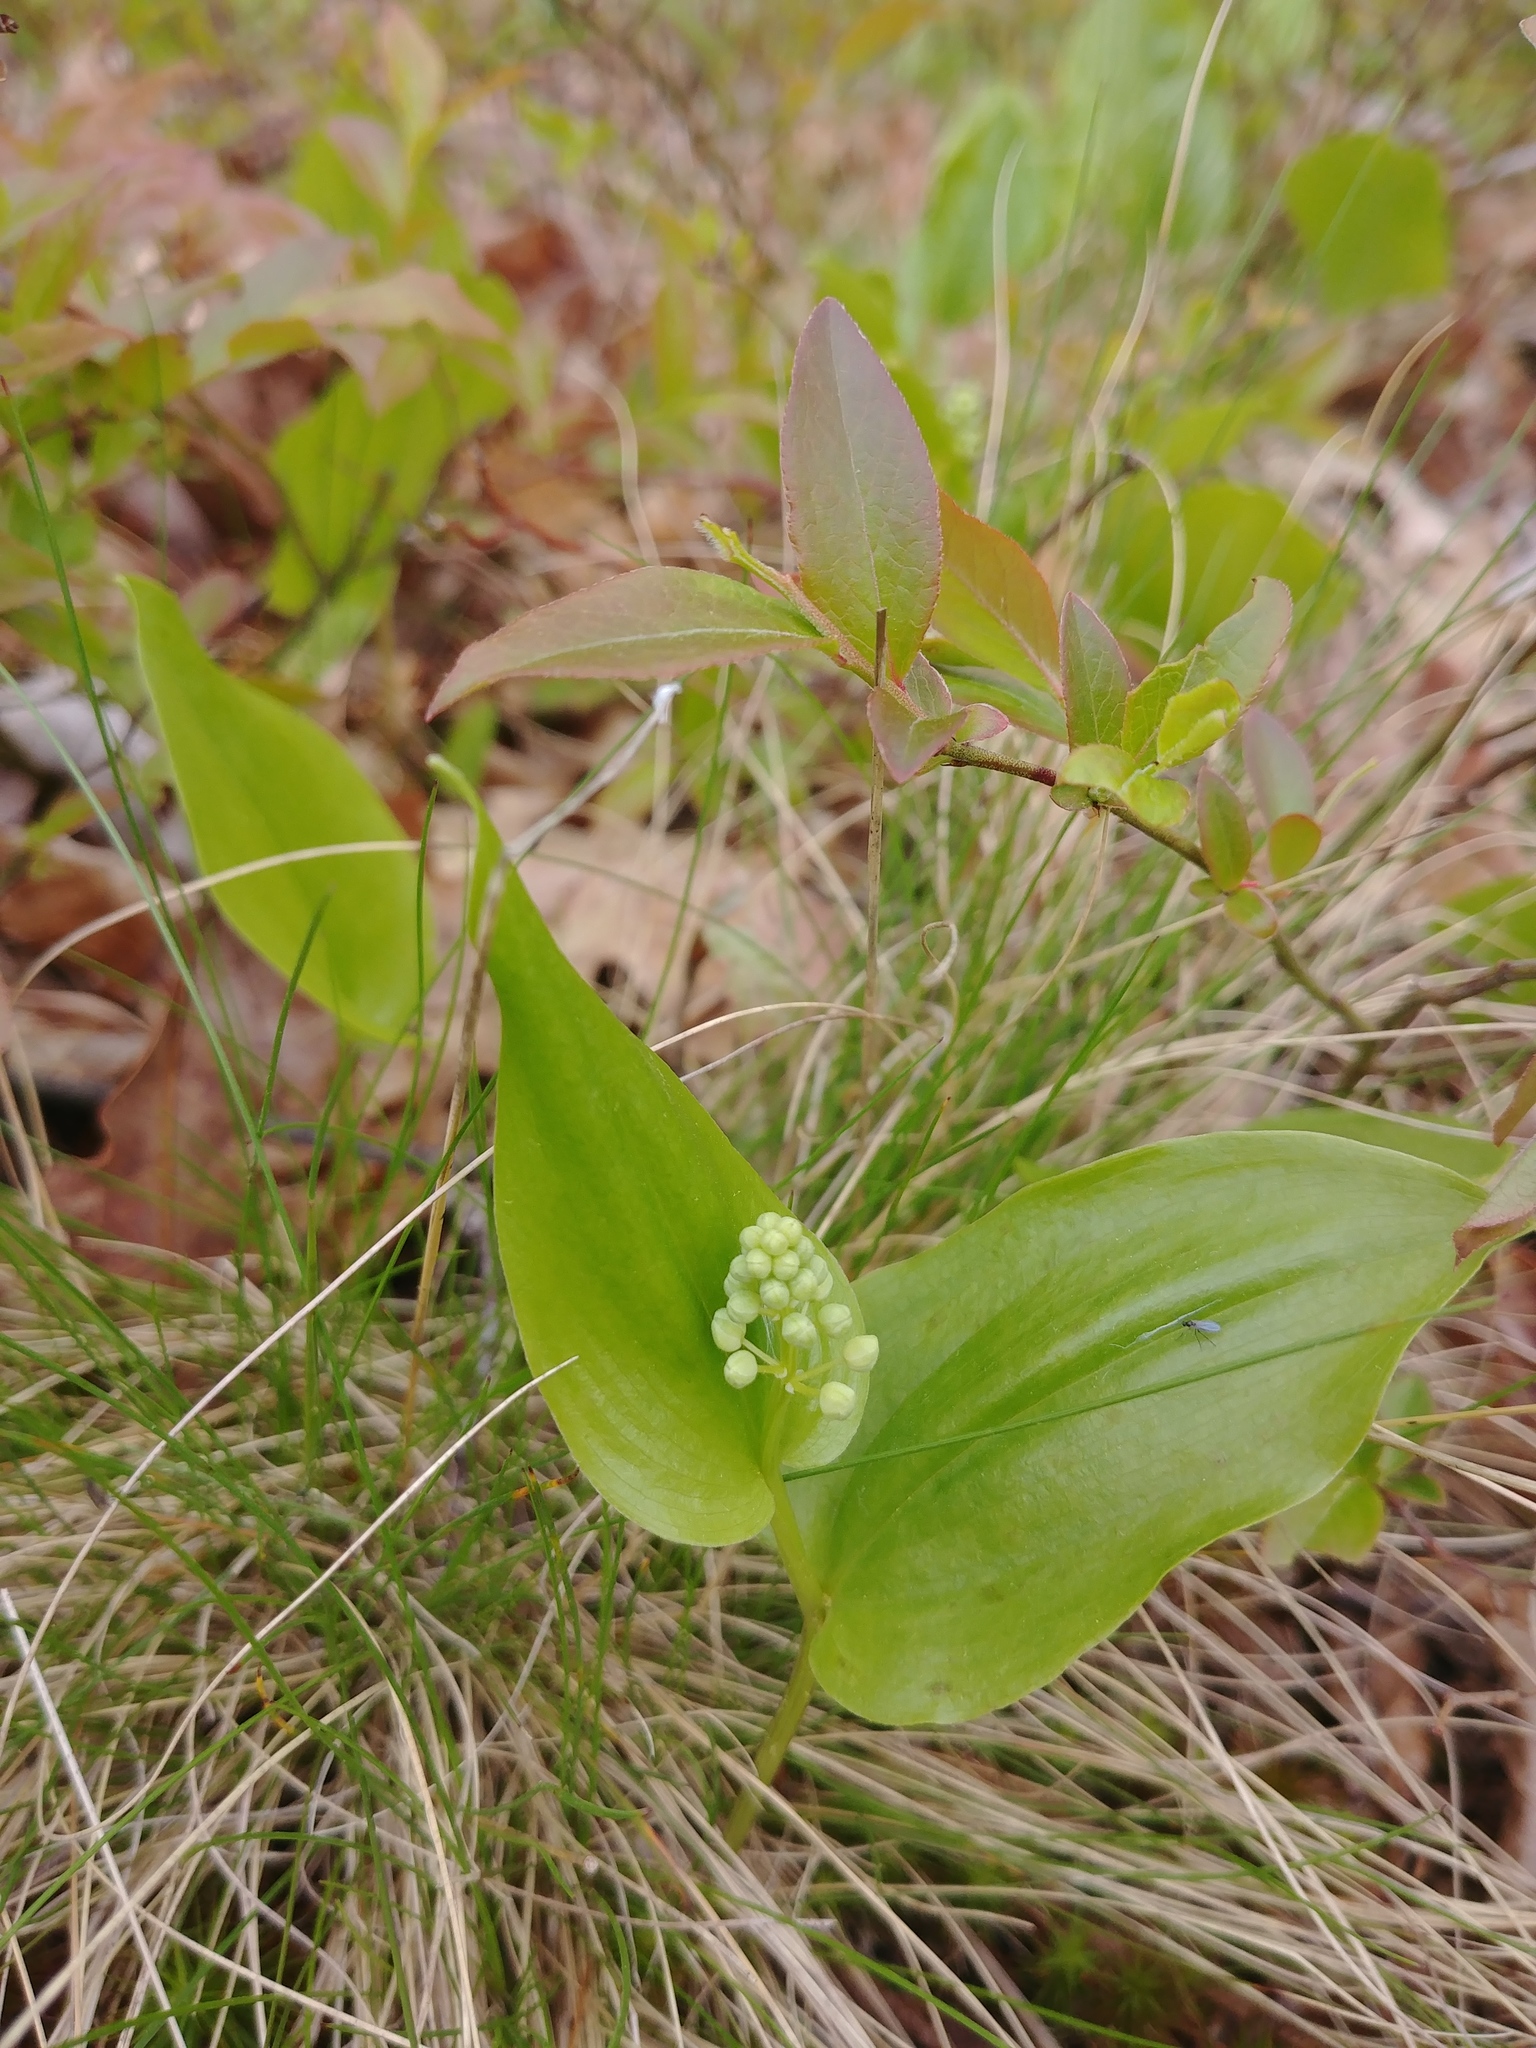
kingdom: Plantae
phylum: Tracheophyta
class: Liliopsida
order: Asparagales
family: Asparagaceae
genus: Maianthemum
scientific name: Maianthemum canadense
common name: False lily-of-the-valley
